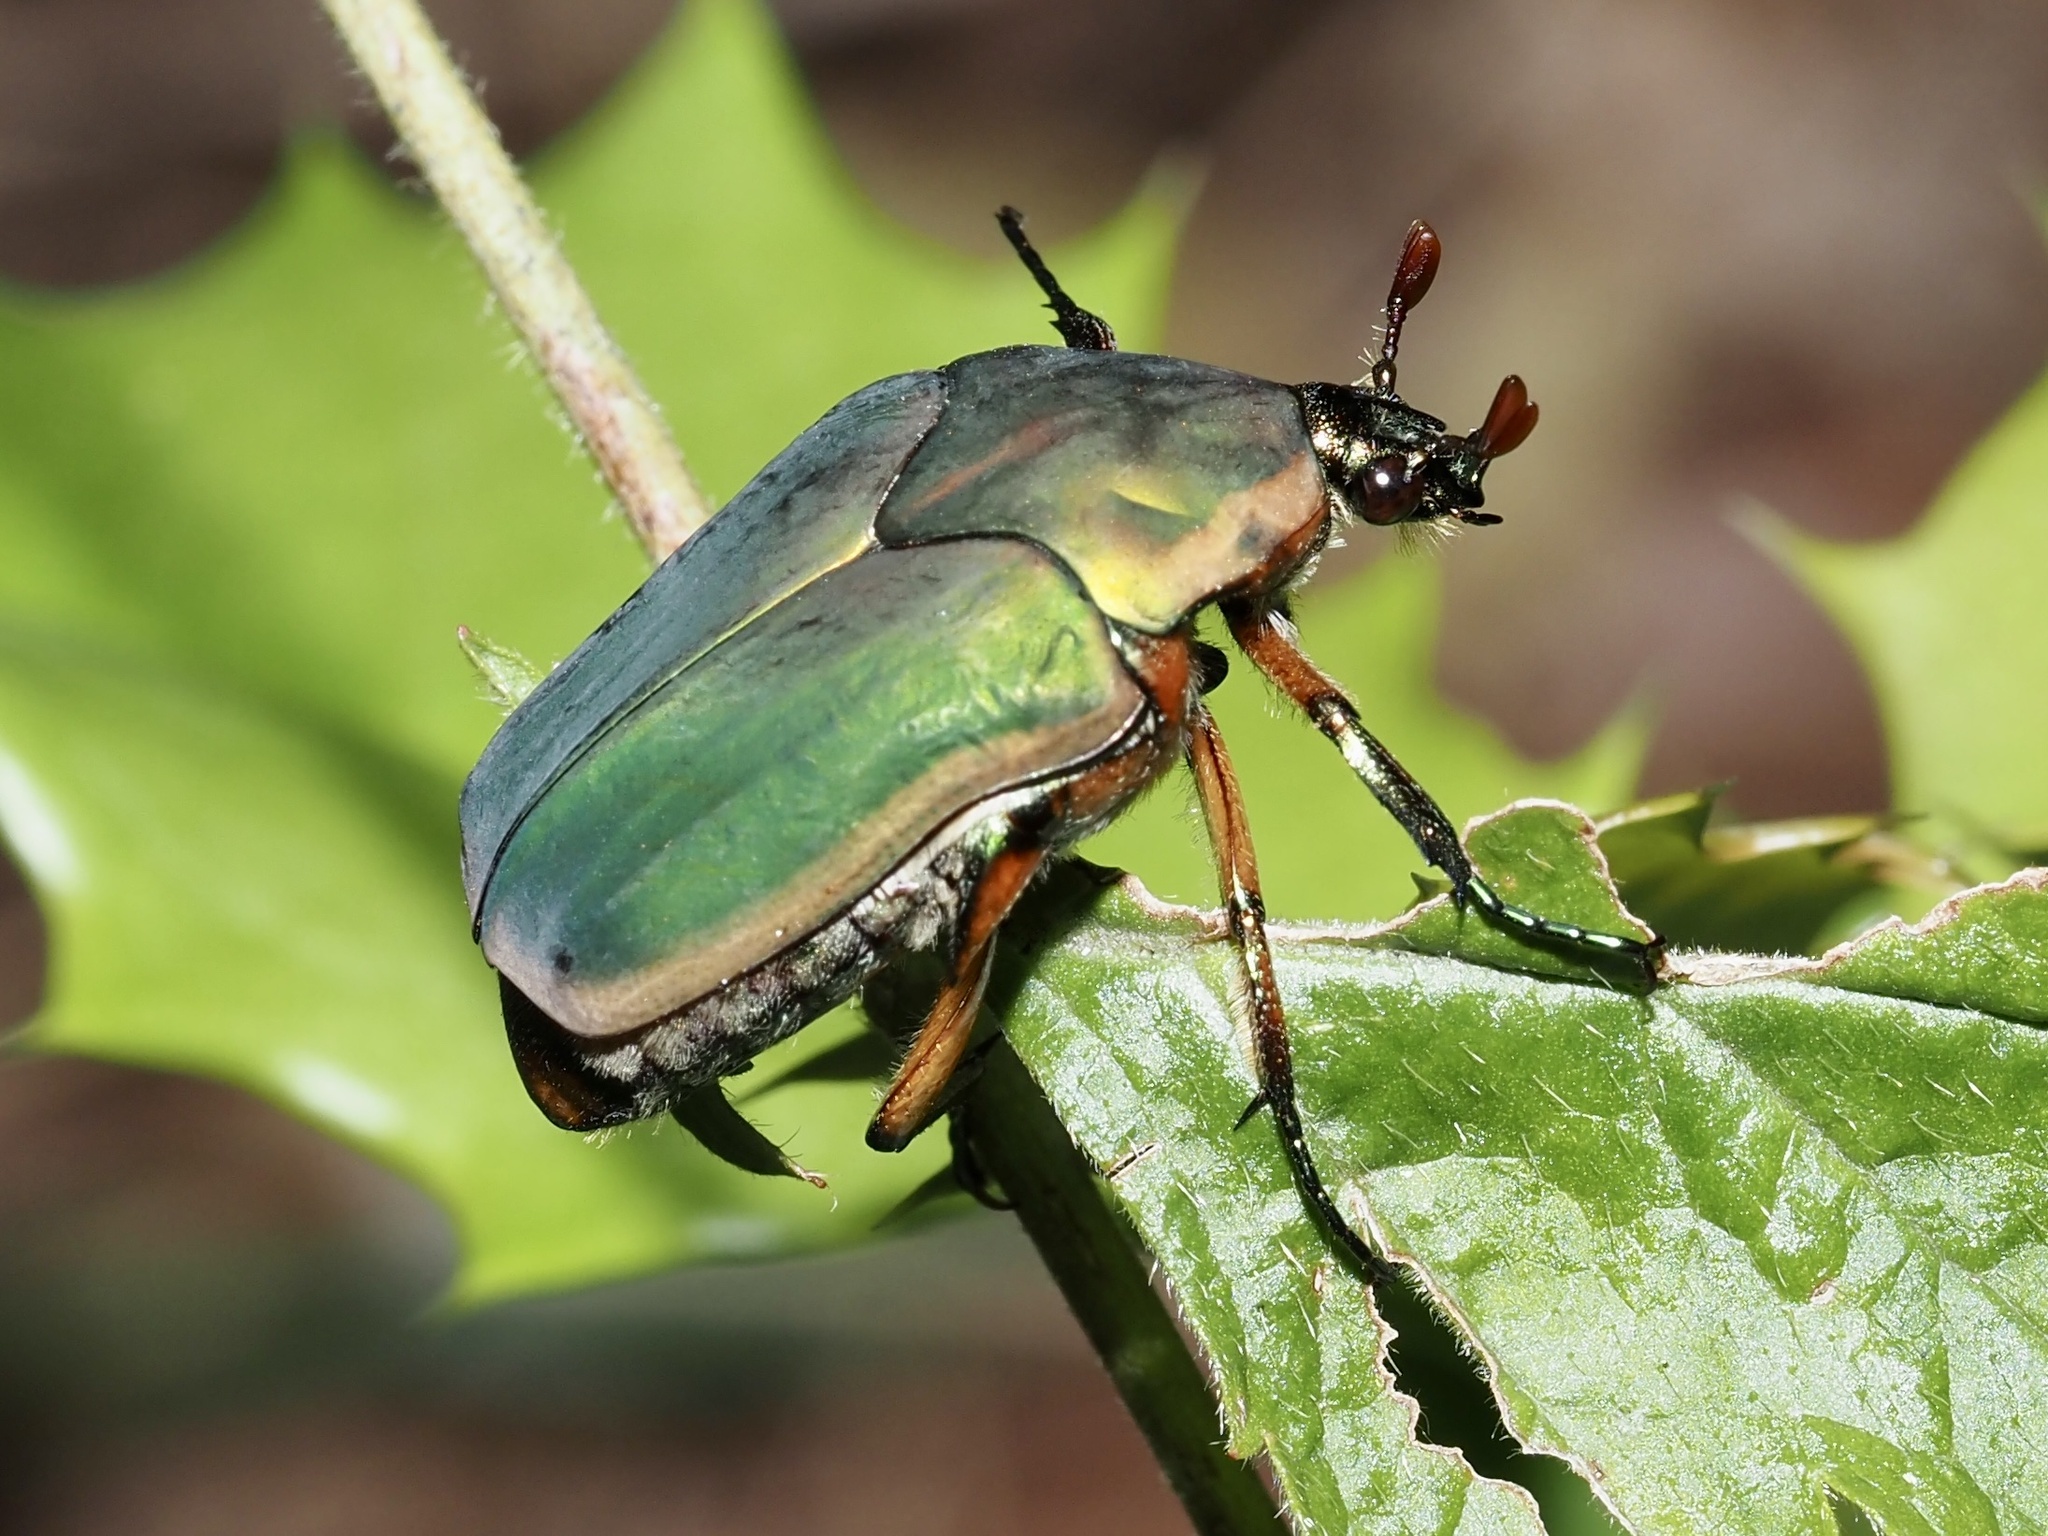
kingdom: Animalia
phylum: Arthropoda
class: Insecta
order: Coleoptera
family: Scarabaeidae
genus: Cotinis
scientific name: Cotinis nitida
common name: Common green june beetle
